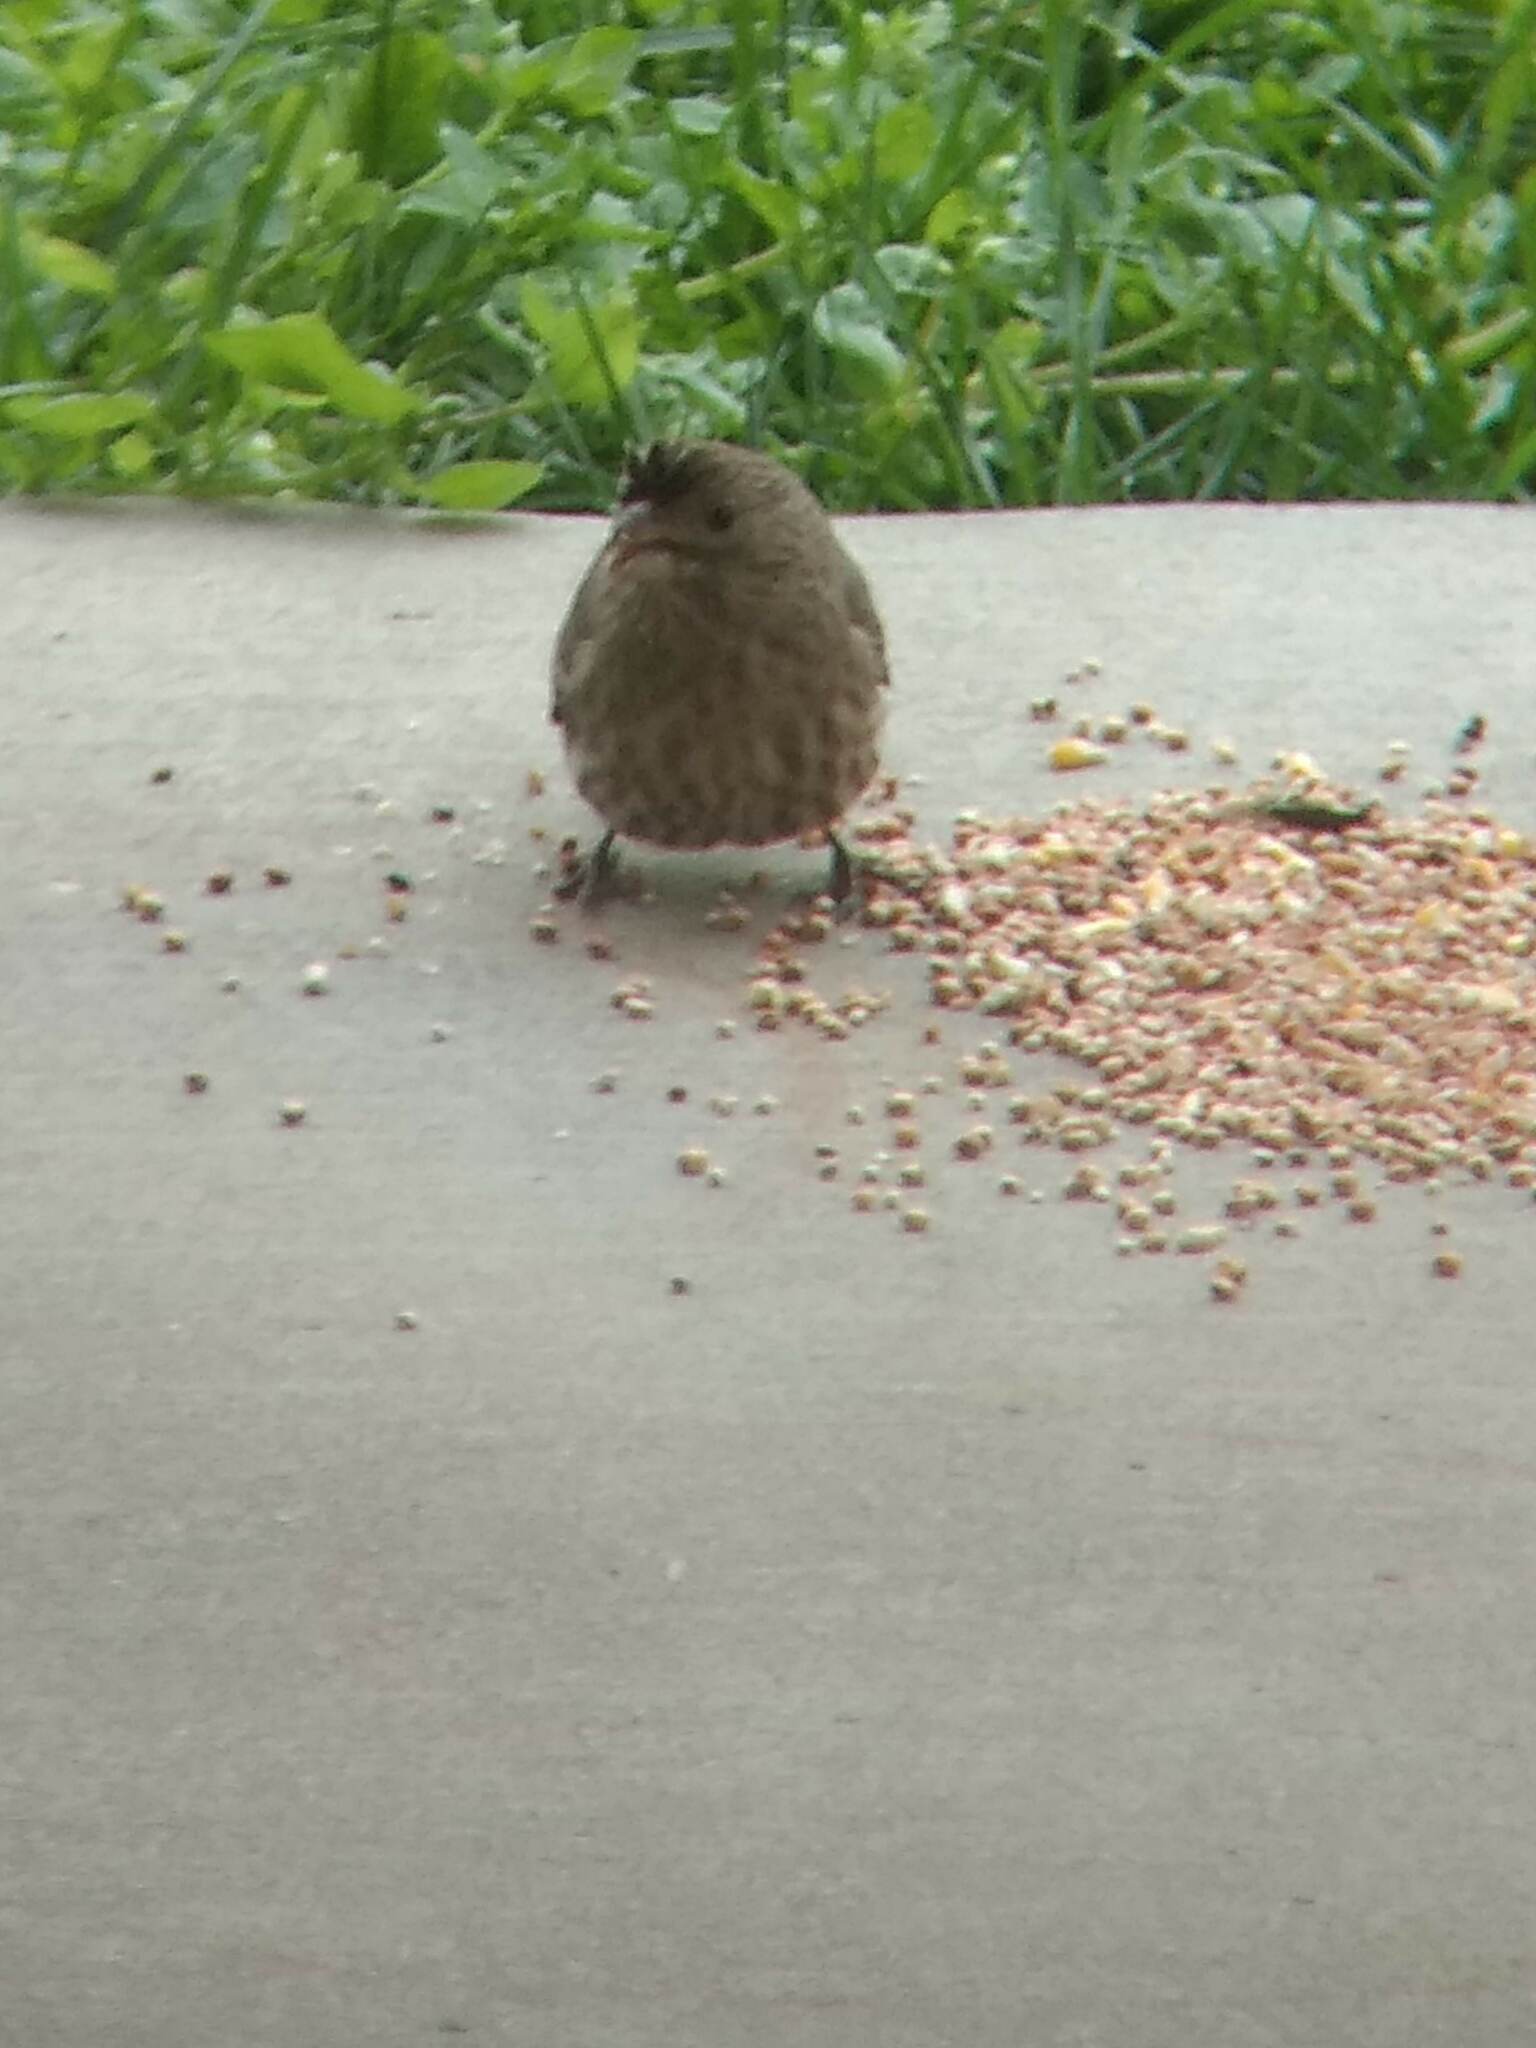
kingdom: Animalia
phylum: Chordata
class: Aves
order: Passeriformes
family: Fringillidae
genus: Haemorhous
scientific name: Haemorhous mexicanus
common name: House finch
